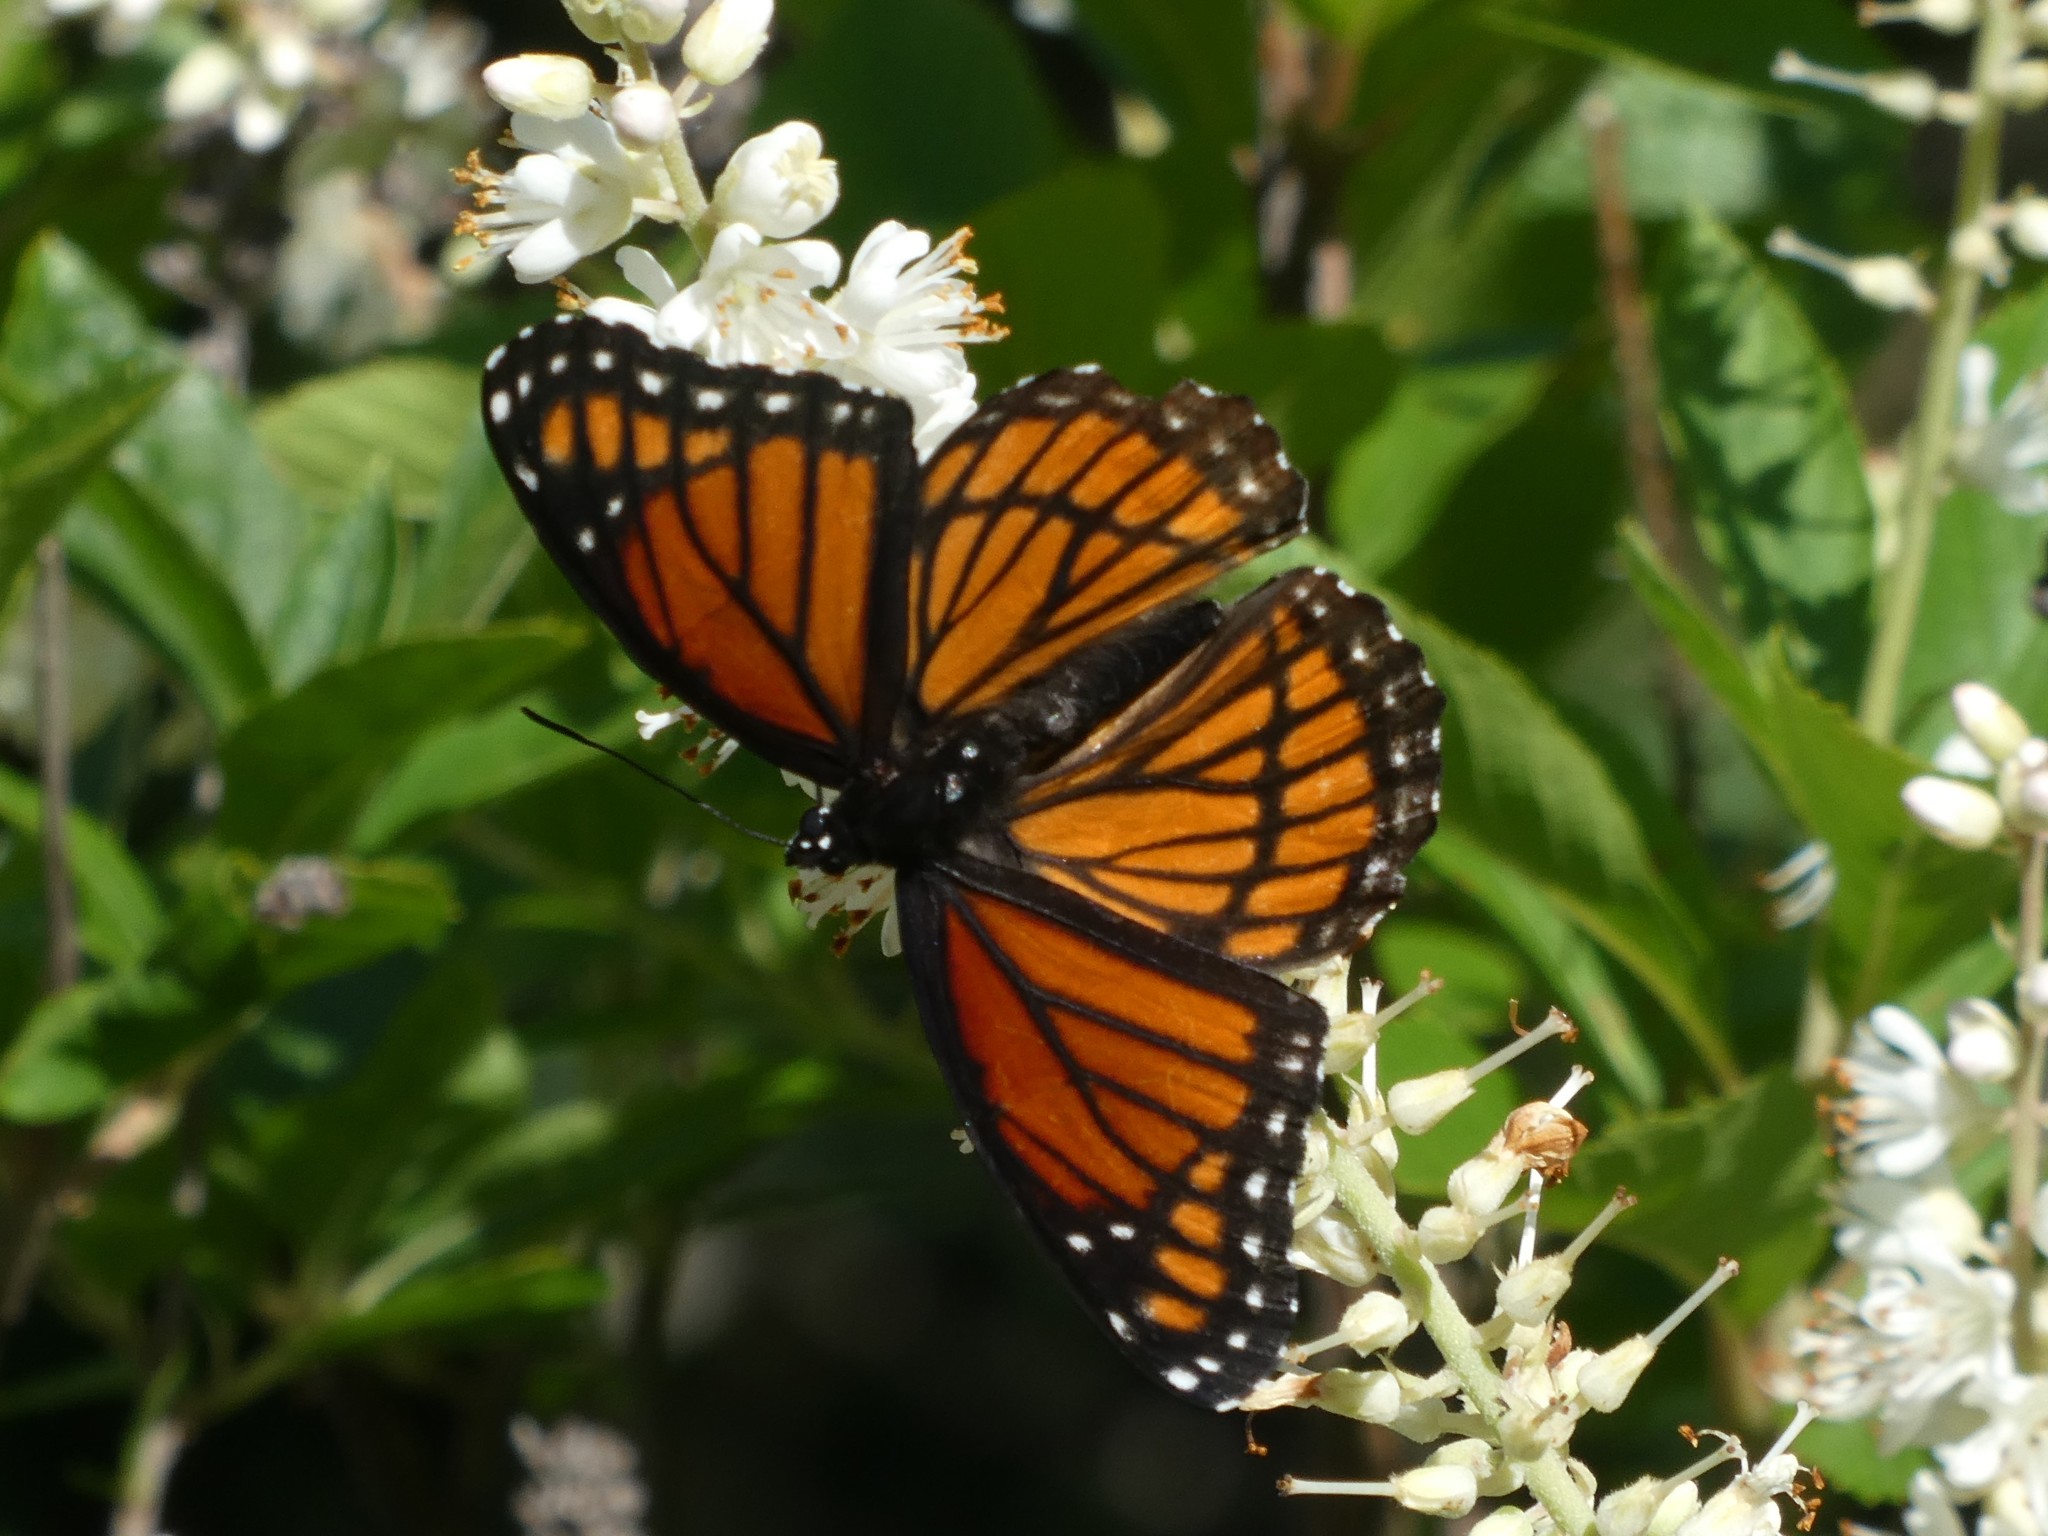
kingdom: Animalia
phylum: Arthropoda
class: Insecta
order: Lepidoptera
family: Nymphalidae
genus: Limenitis
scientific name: Limenitis archippus
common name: Viceroy
